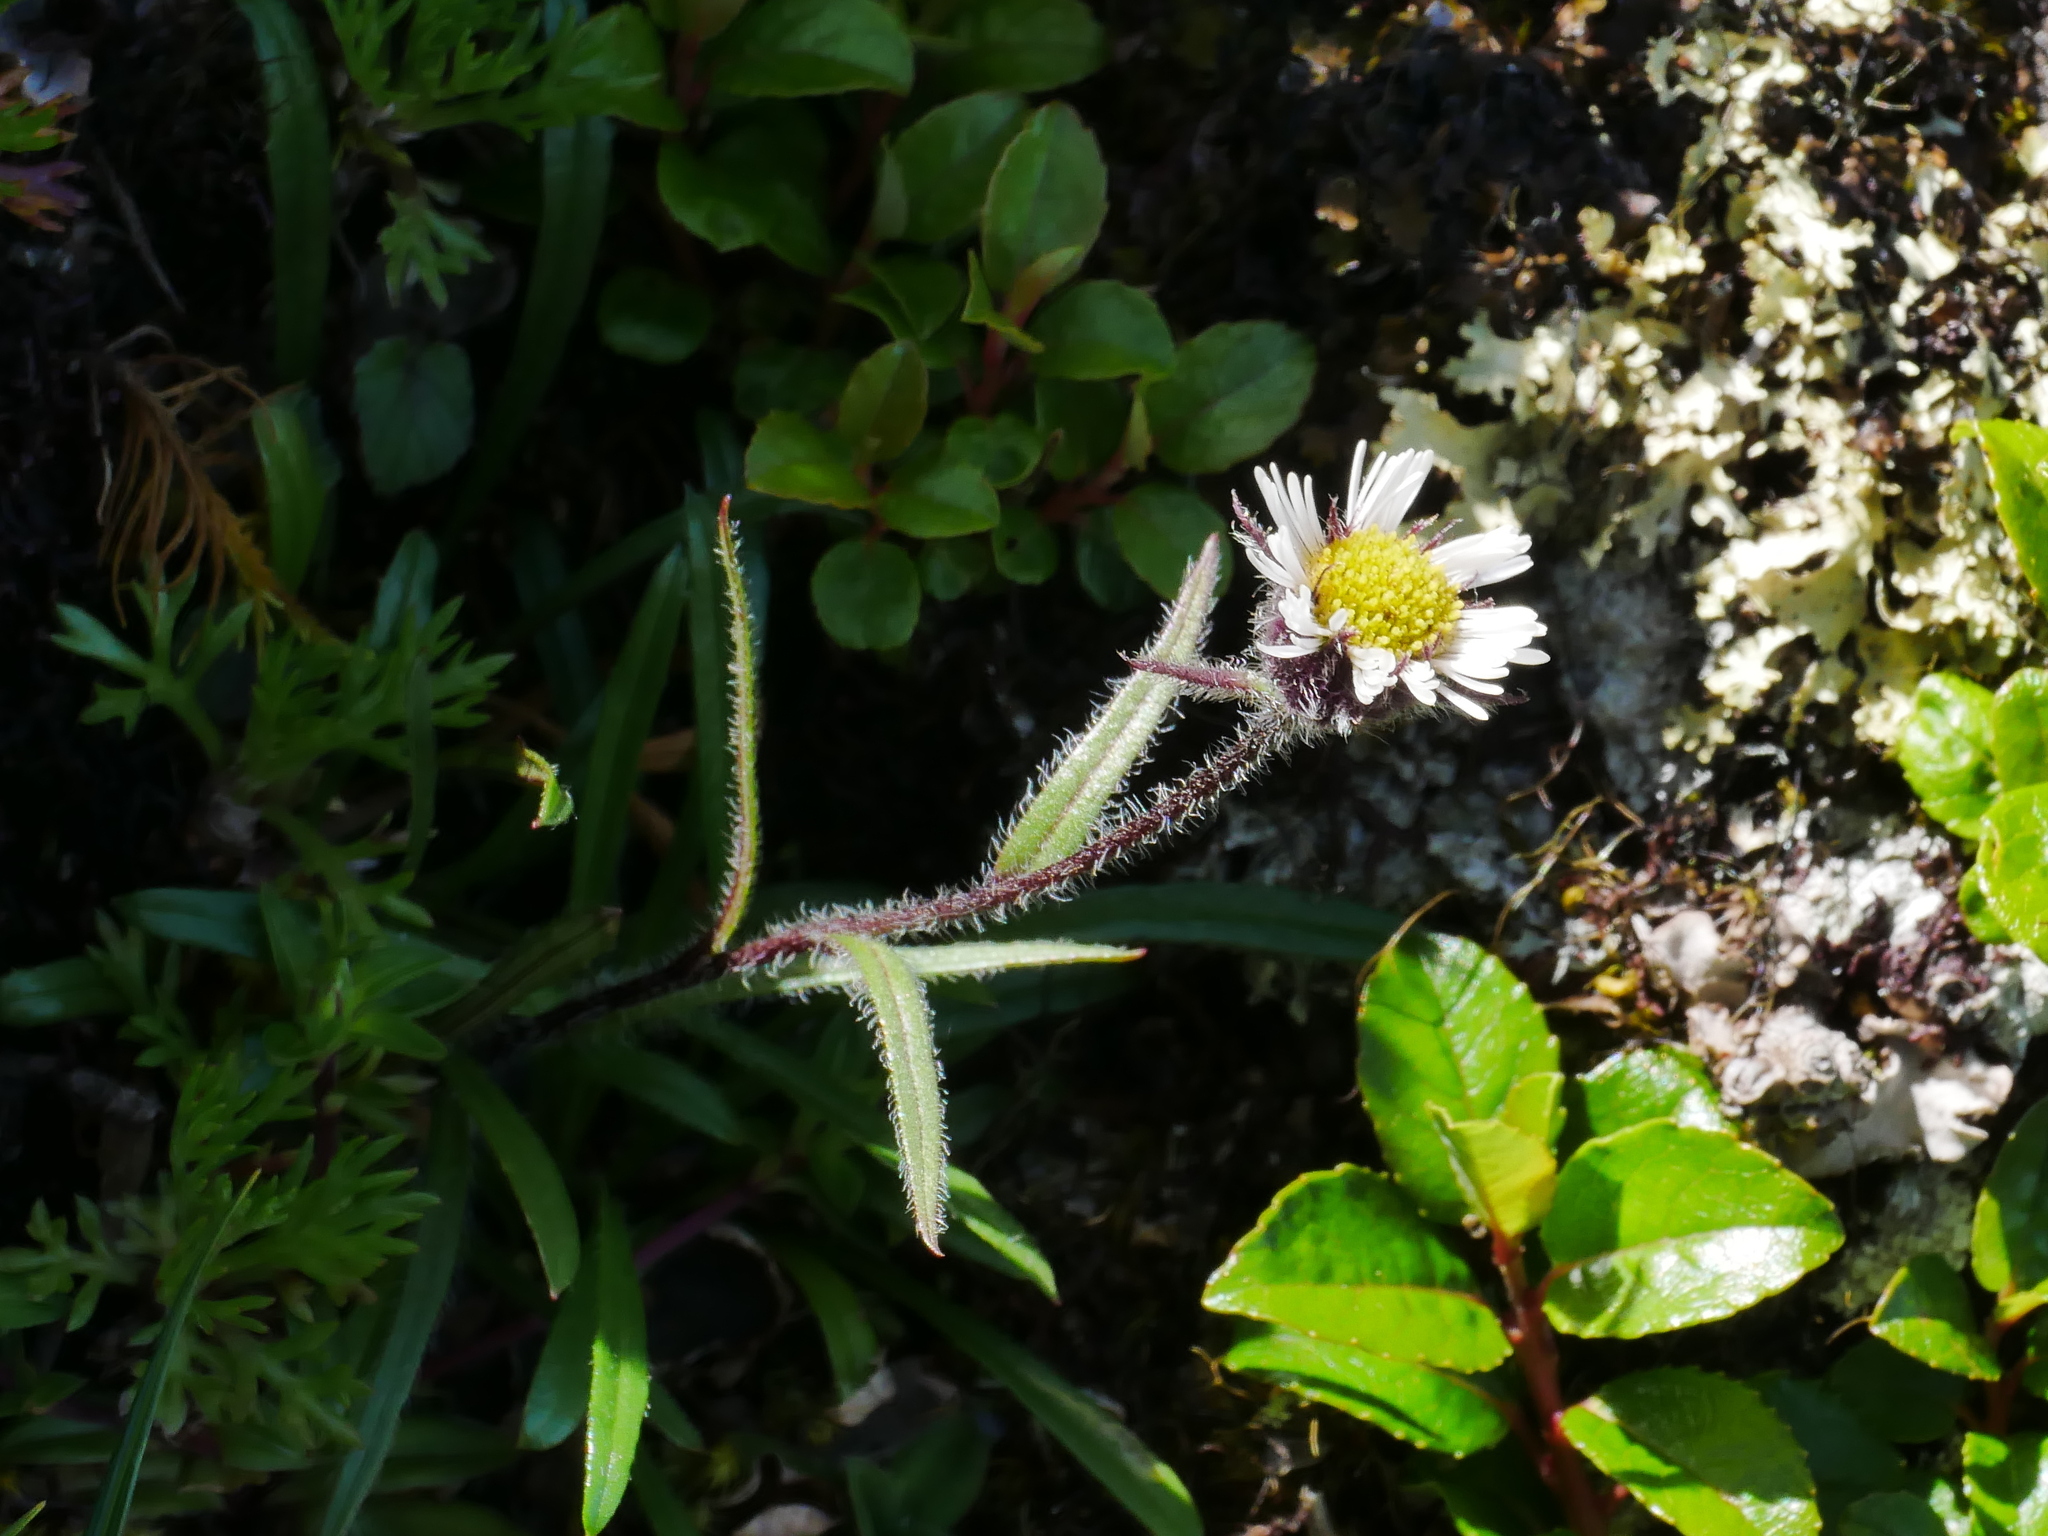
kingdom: Plantae
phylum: Tracheophyta
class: Magnoliopsida
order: Asterales
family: Asteraceae
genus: Erigeron
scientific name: Erigeron morrisonensis
